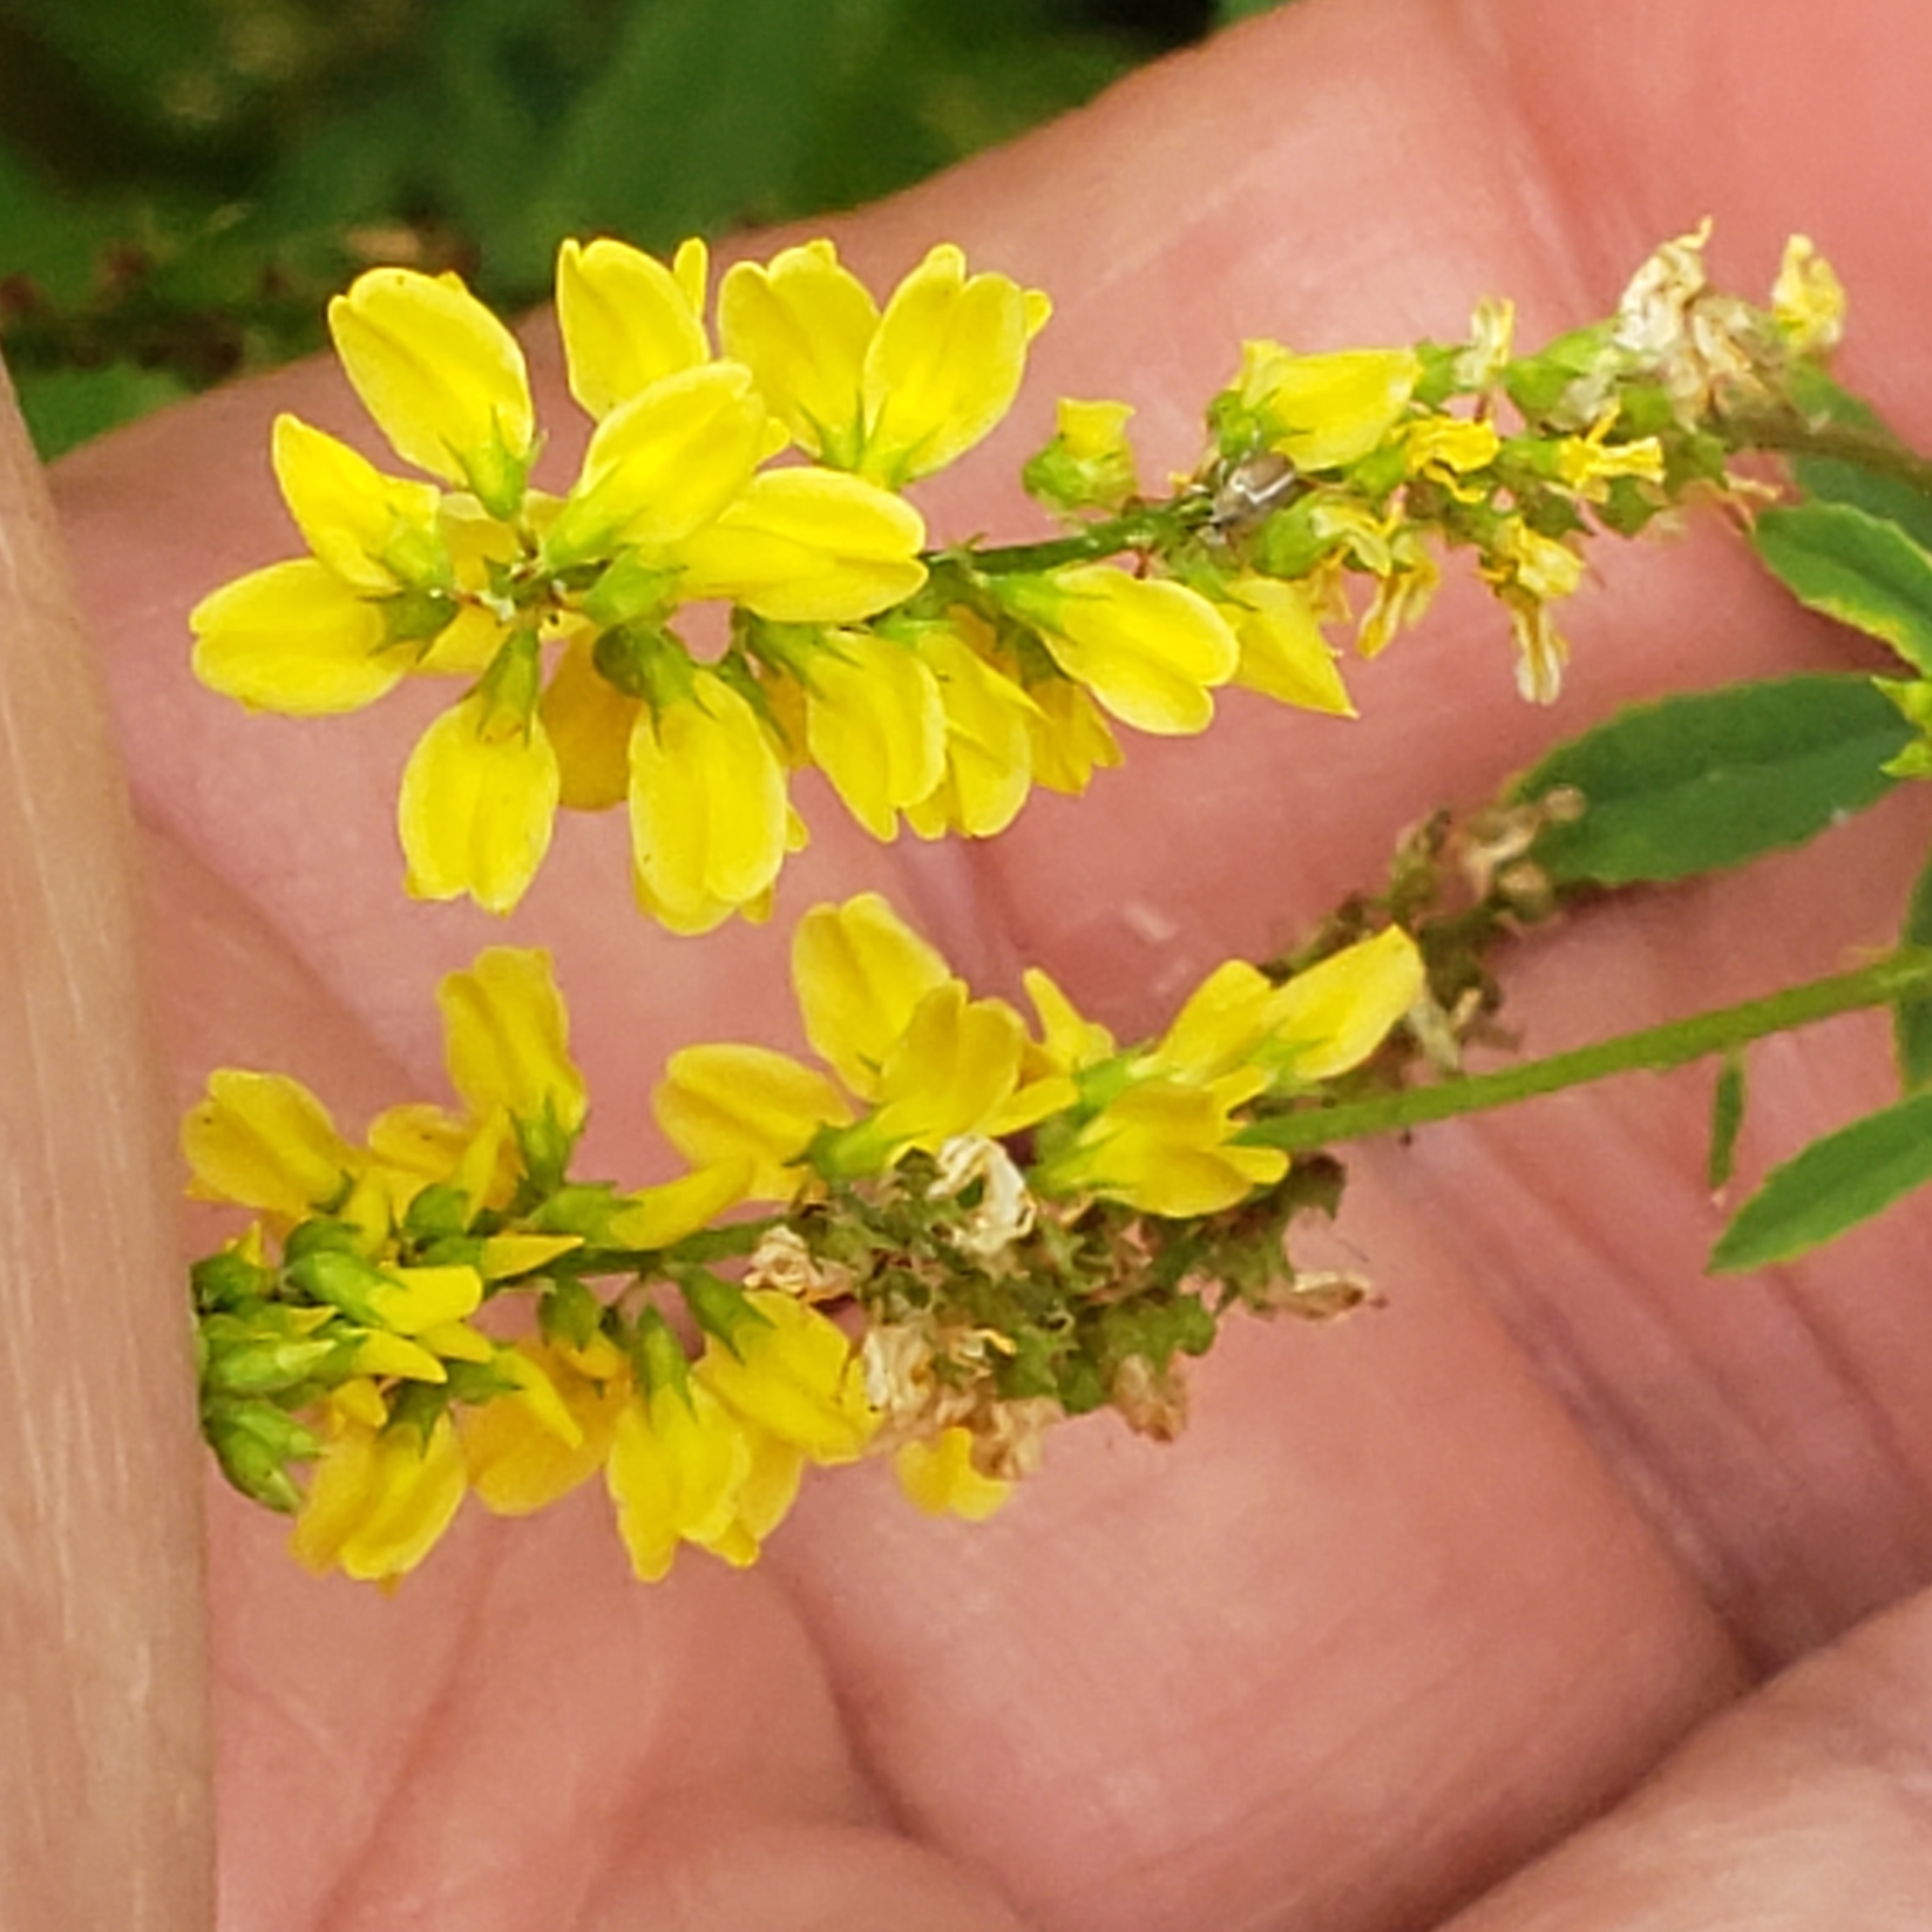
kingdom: Plantae
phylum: Tracheophyta
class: Magnoliopsida
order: Fabales
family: Fabaceae
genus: Melilotus
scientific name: Melilotus officinalis
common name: Sweetclover
